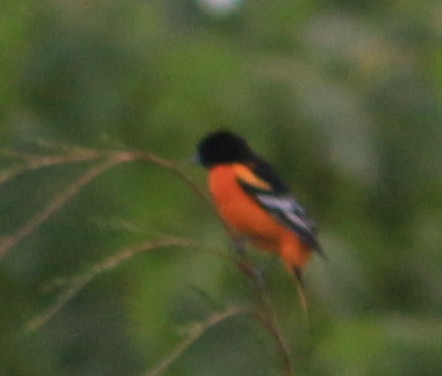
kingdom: Animalia
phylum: Chordata
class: Aves
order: Passeriformes
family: Icteridae
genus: Icterus
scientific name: Icterus galbula
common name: Baltimore oriole
